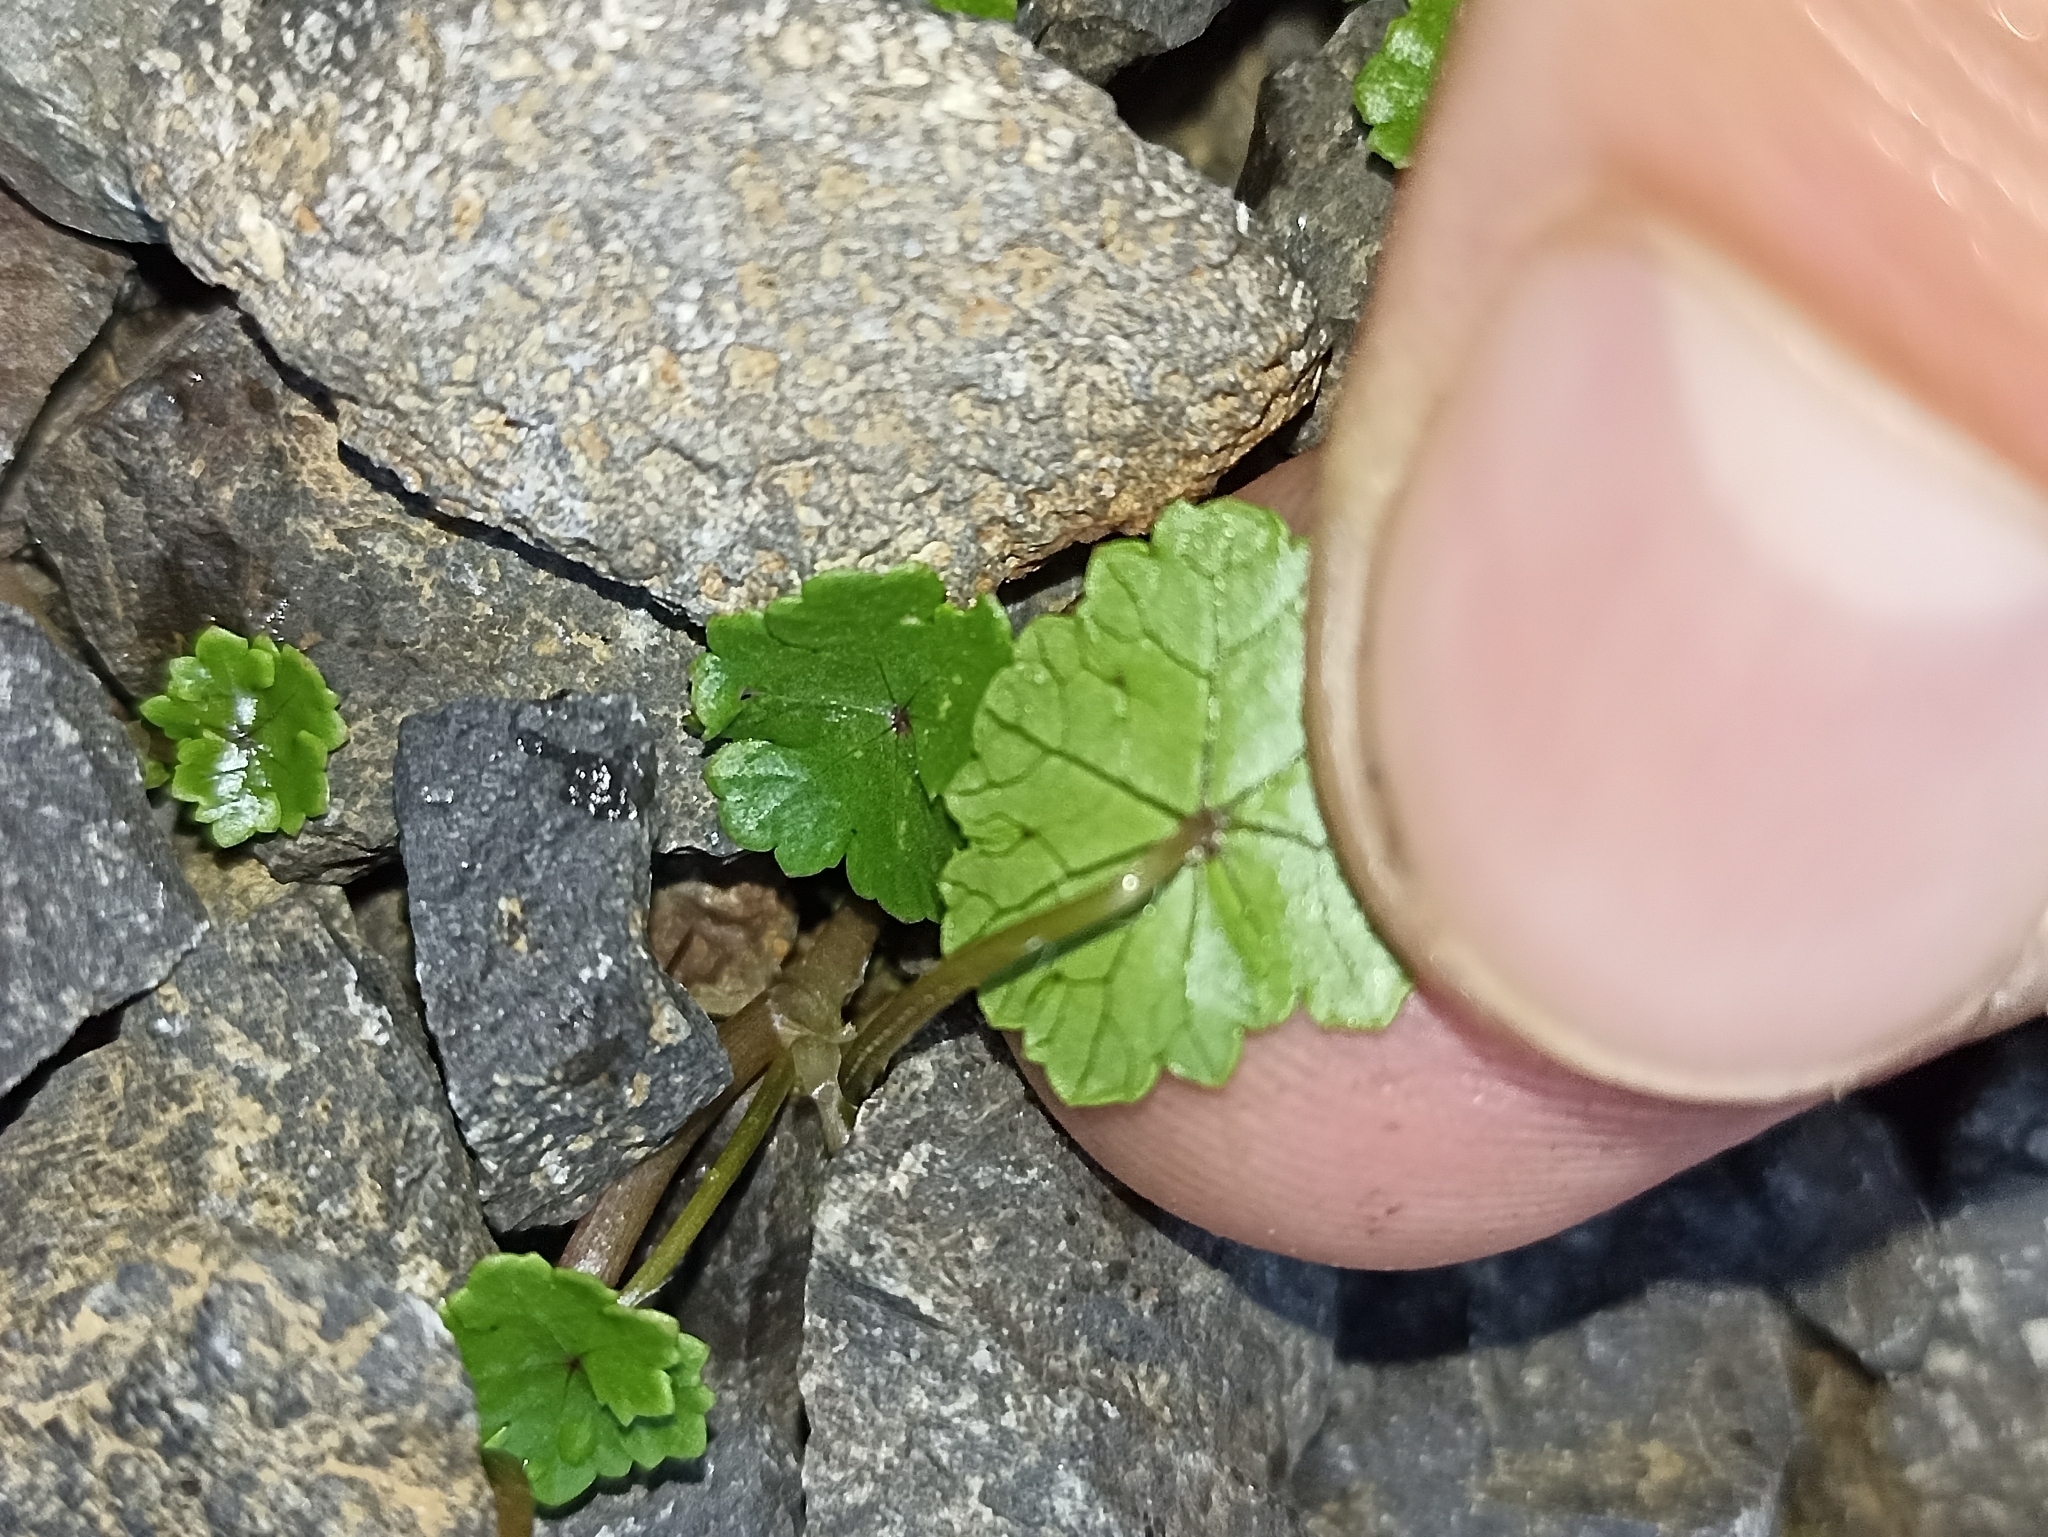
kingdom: Plantae
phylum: Tracheophyta
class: Magnoliopsida
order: Apiales
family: Araliaceae
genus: Hydrocotyle
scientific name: Hydrocotyle microphylla
